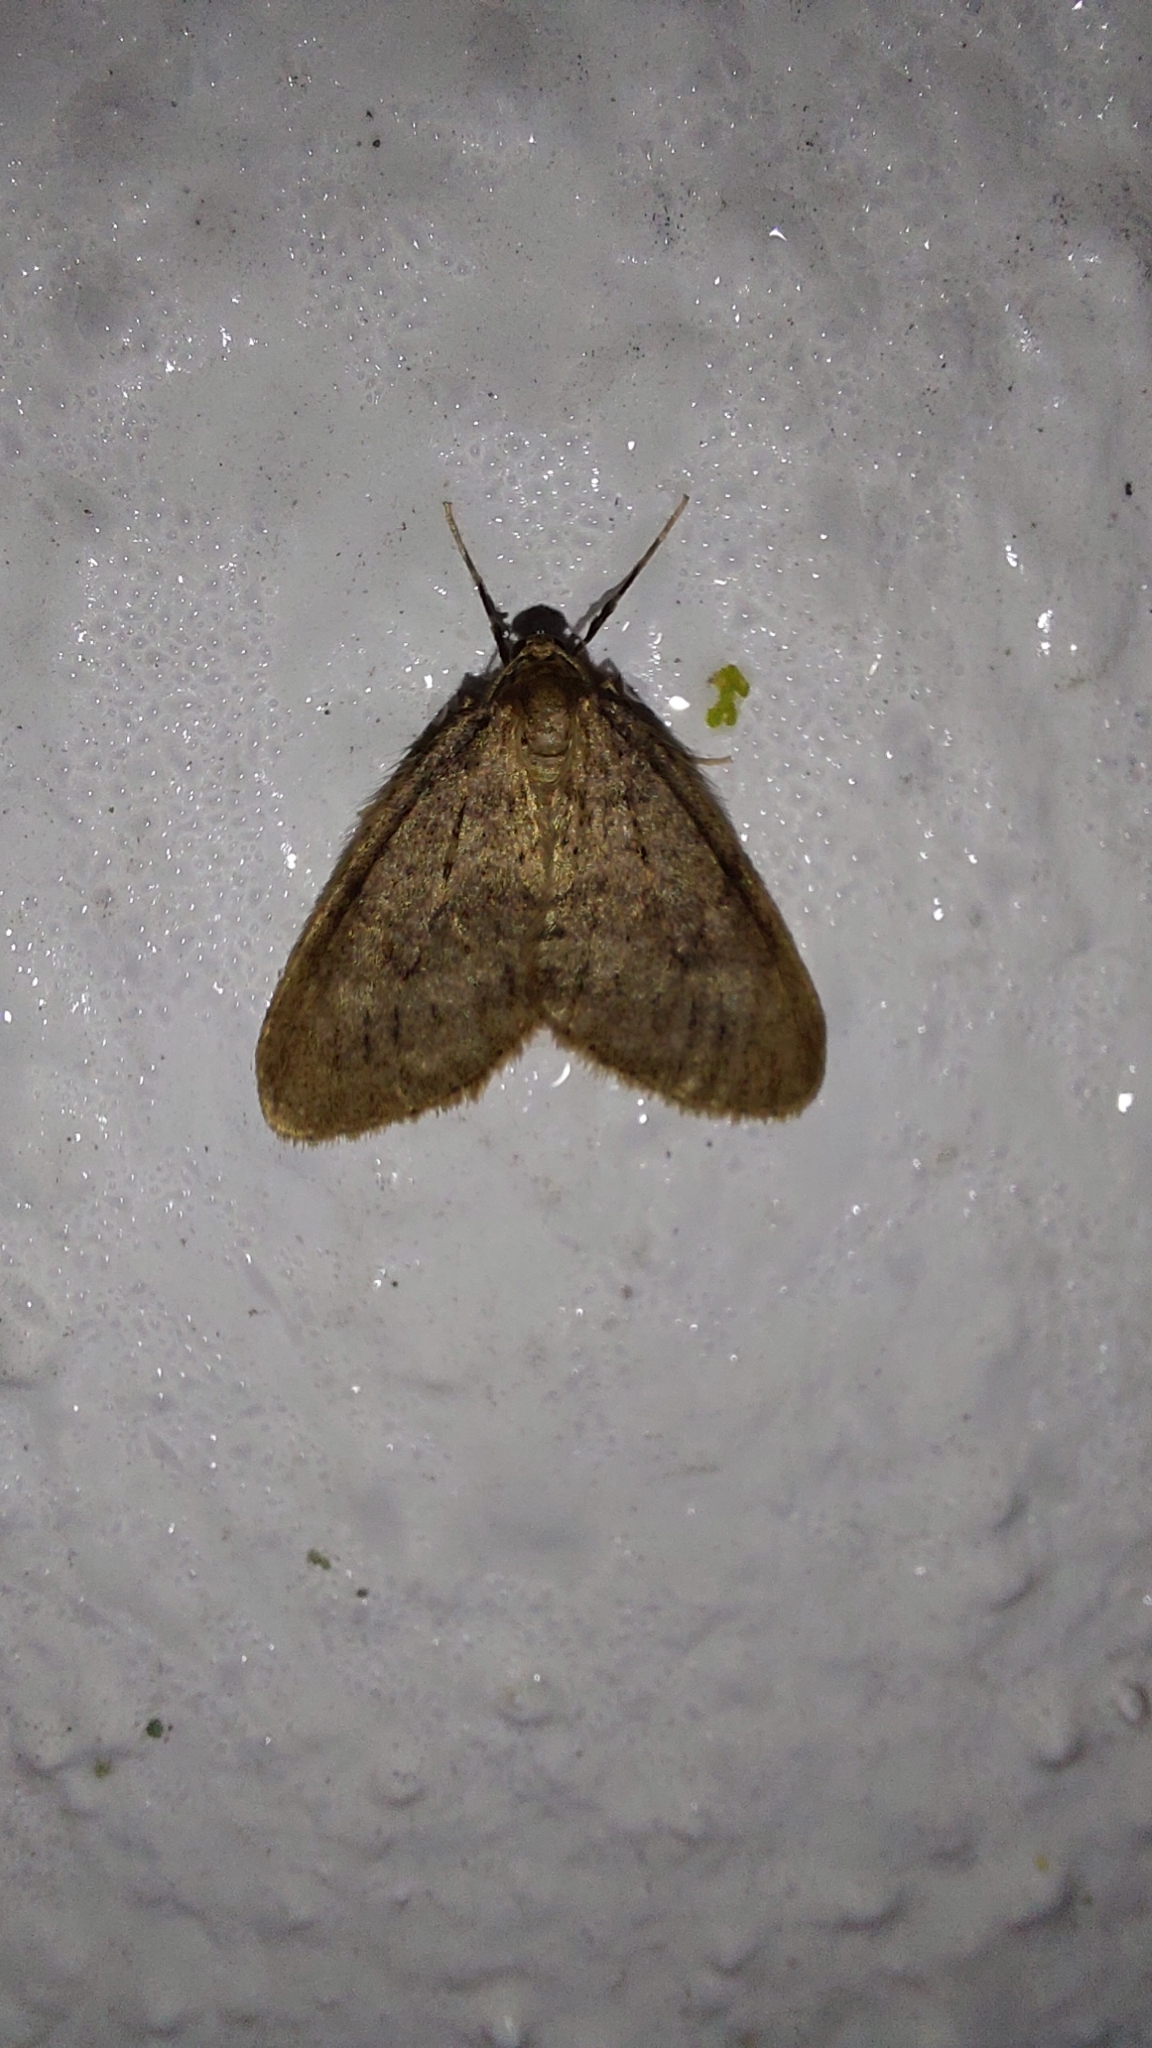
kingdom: Animalia
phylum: Arthropoda
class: Insecta
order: Lepidoptera
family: Geometridae
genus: Operophtera
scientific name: Operophtera brumata
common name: Winter moth
